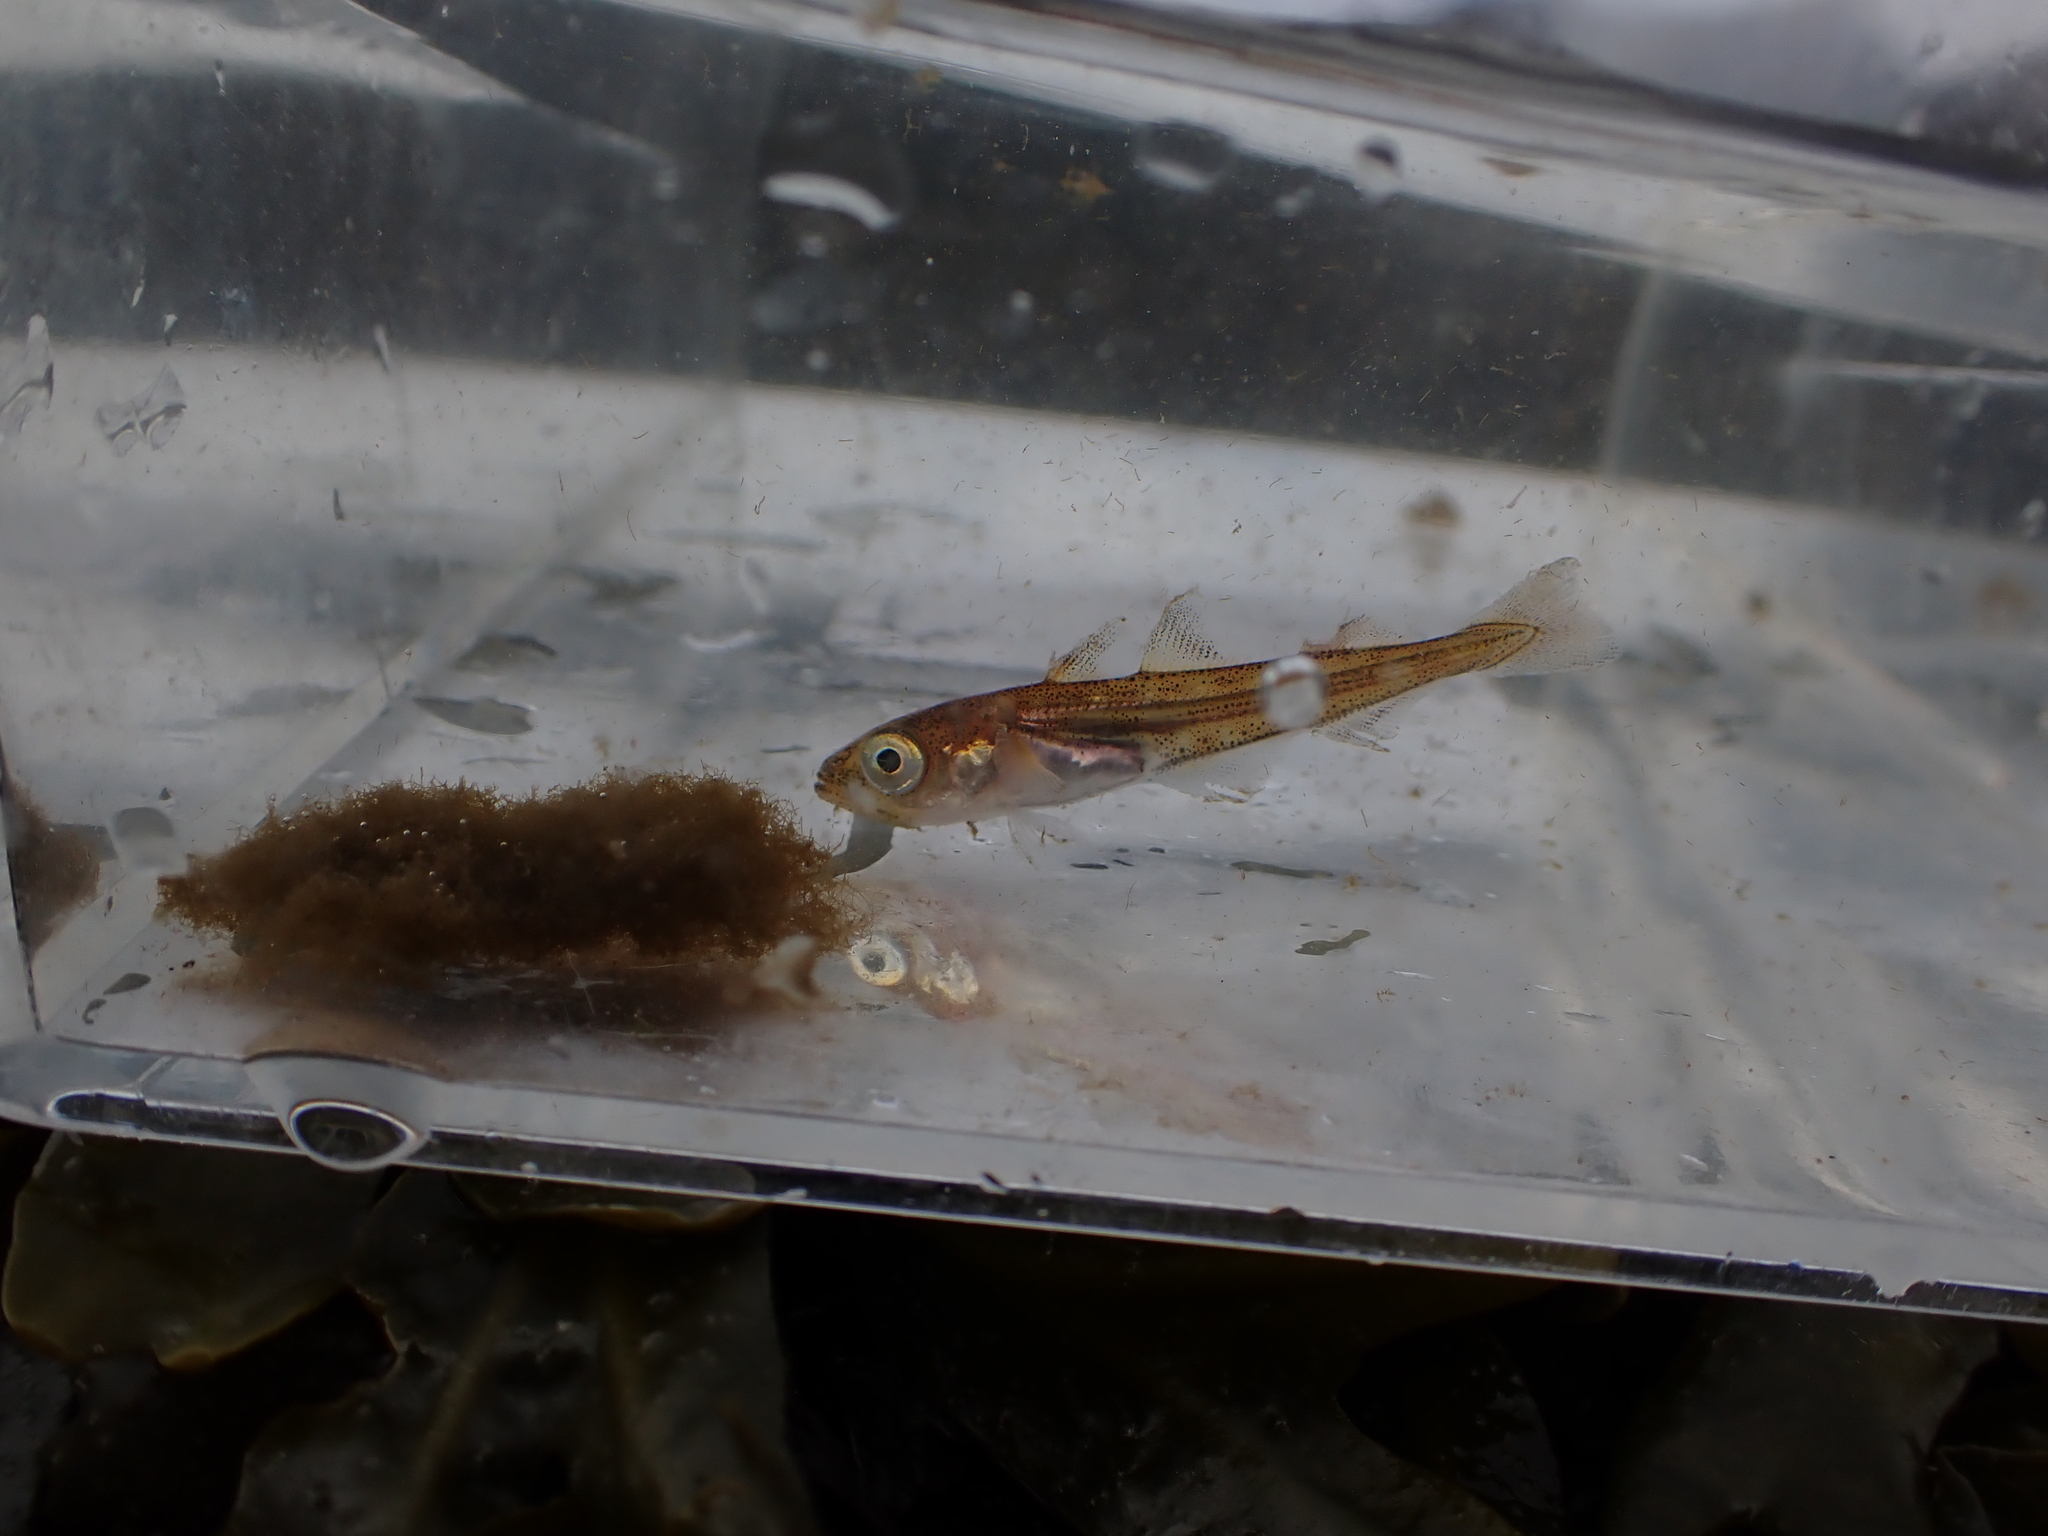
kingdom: Animalia
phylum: Chordata
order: Gadiformes
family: Gadidae
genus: Gadus
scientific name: Gadus chalcogrammus
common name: Walleye pollock
